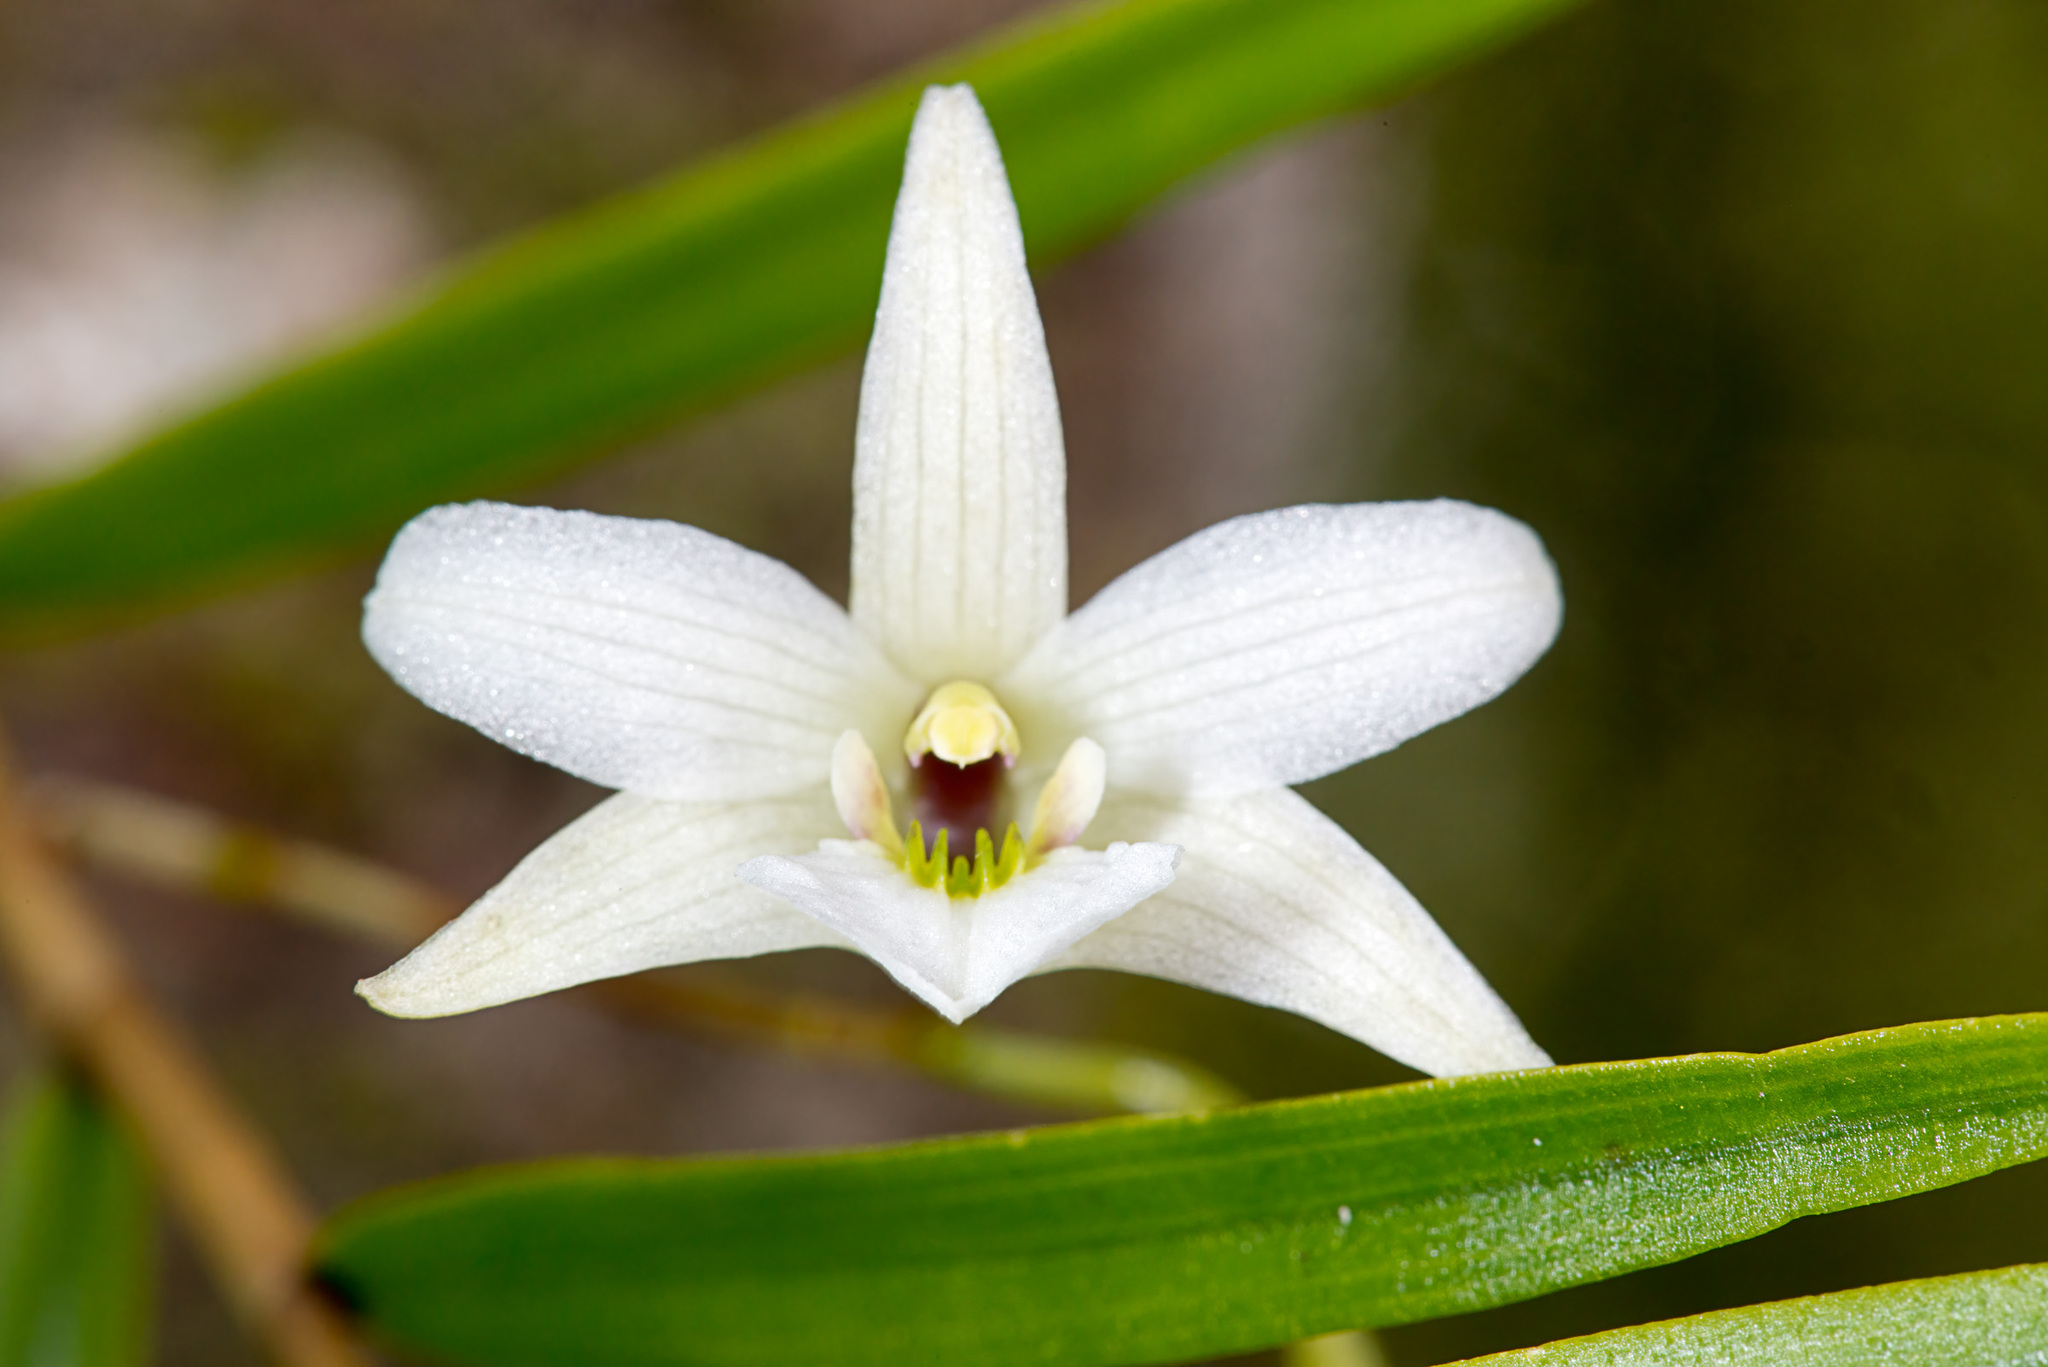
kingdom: Plantae
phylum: Tracheophyta
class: Liliopsida
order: Asparagales
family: Orchidaceae
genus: Dendrobium
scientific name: Dendrobium cunninghamii
